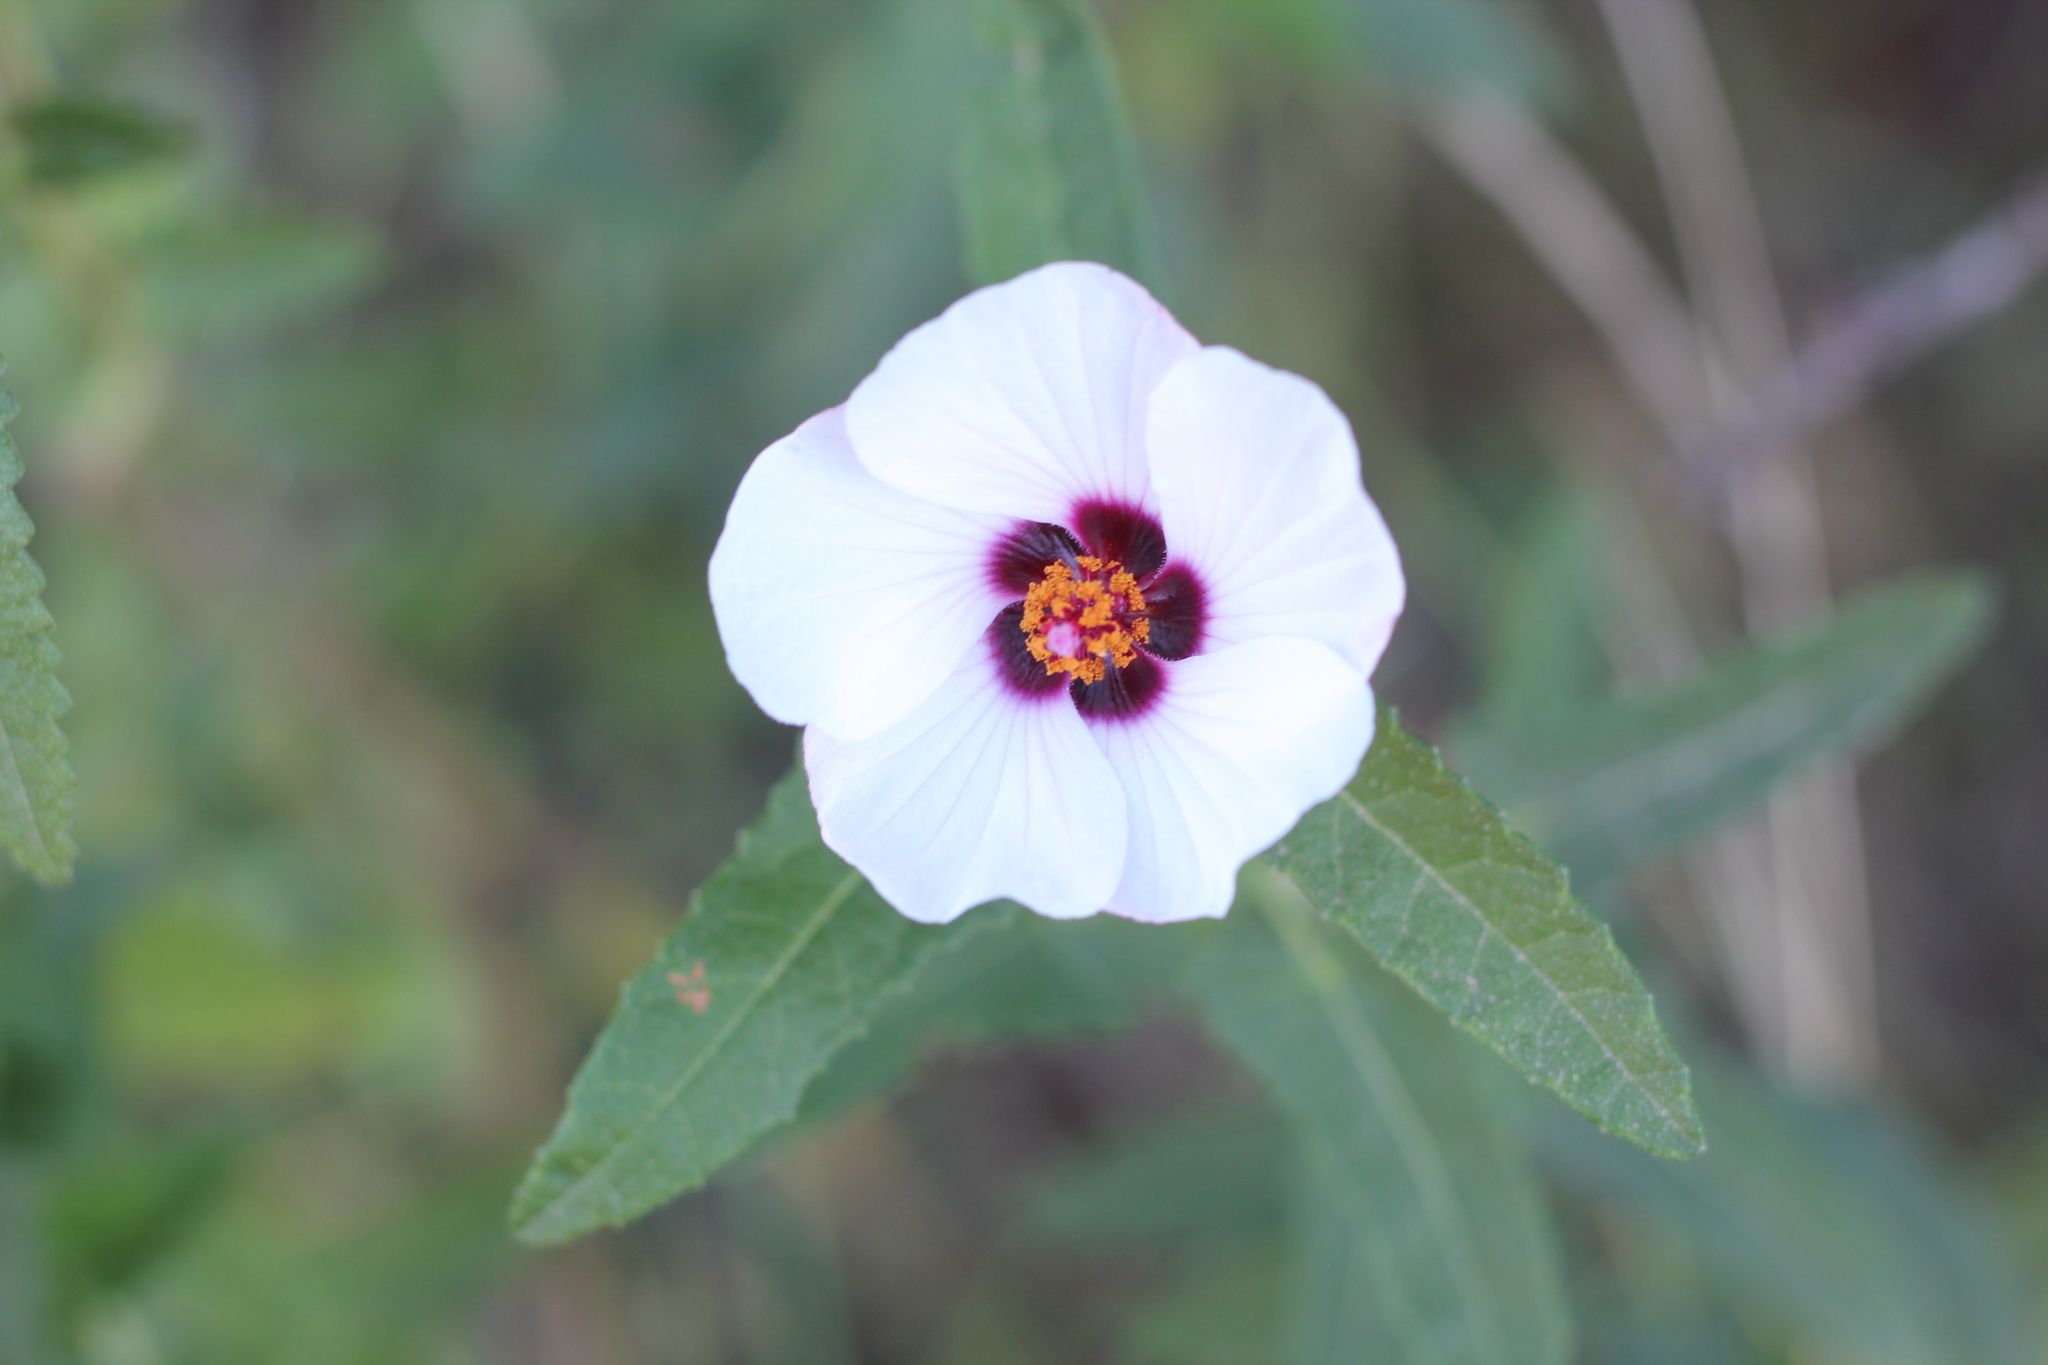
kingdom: Plantae
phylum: Tracheophyta
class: Magnoliopsida
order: Malvales
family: Malvaceae
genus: Pavonia
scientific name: Pavonia hastata
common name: Spearleaf swampmallow
